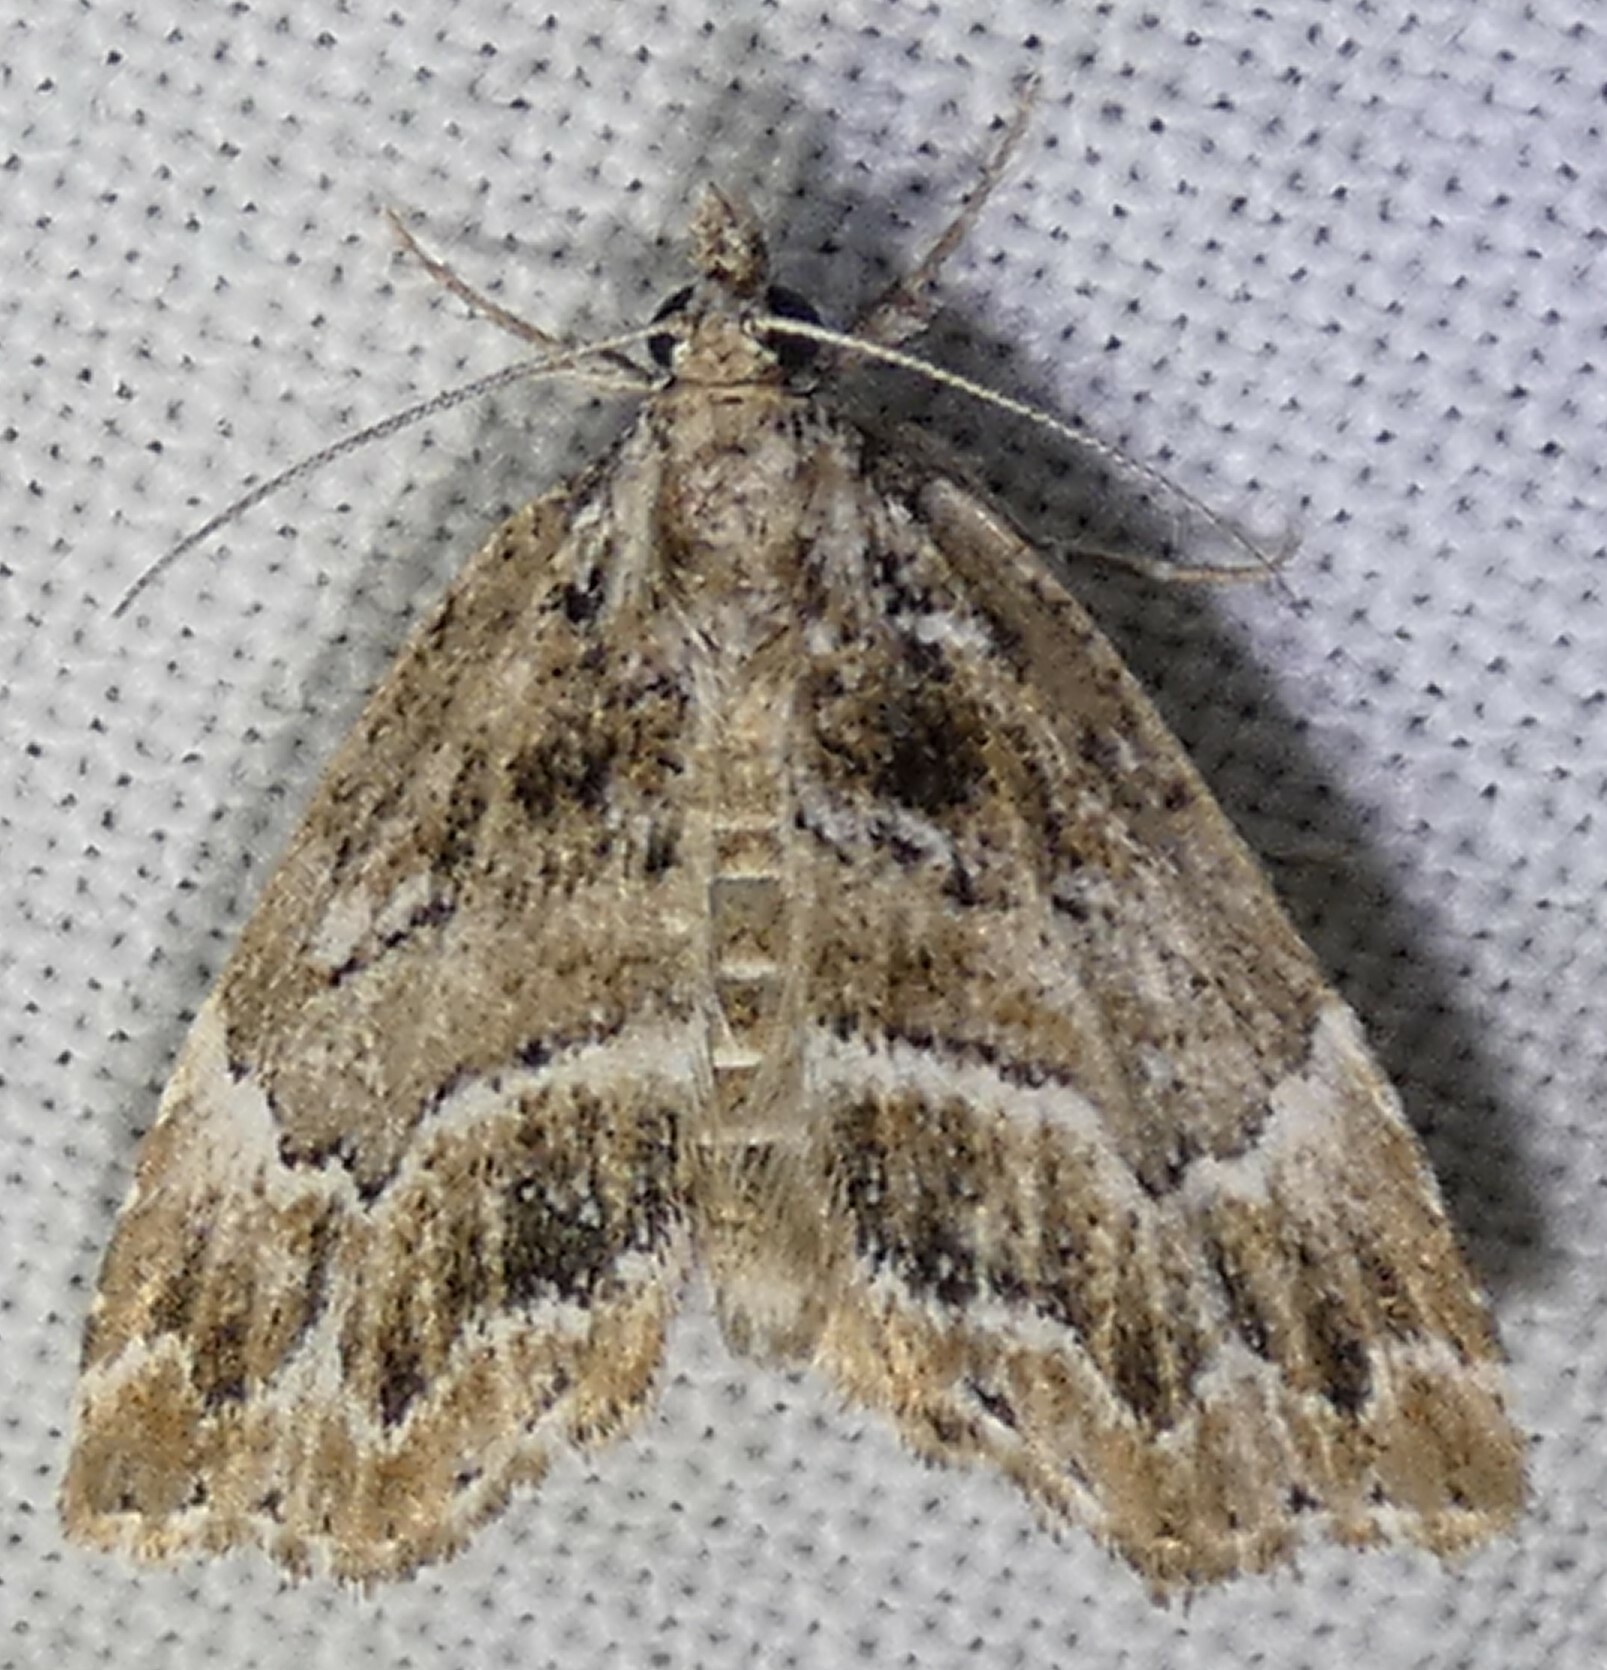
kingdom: Animalia
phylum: Arthropoda
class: Insecta
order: Lepidoptera
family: Erebidae
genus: Cutina
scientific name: Cutina arcuata
